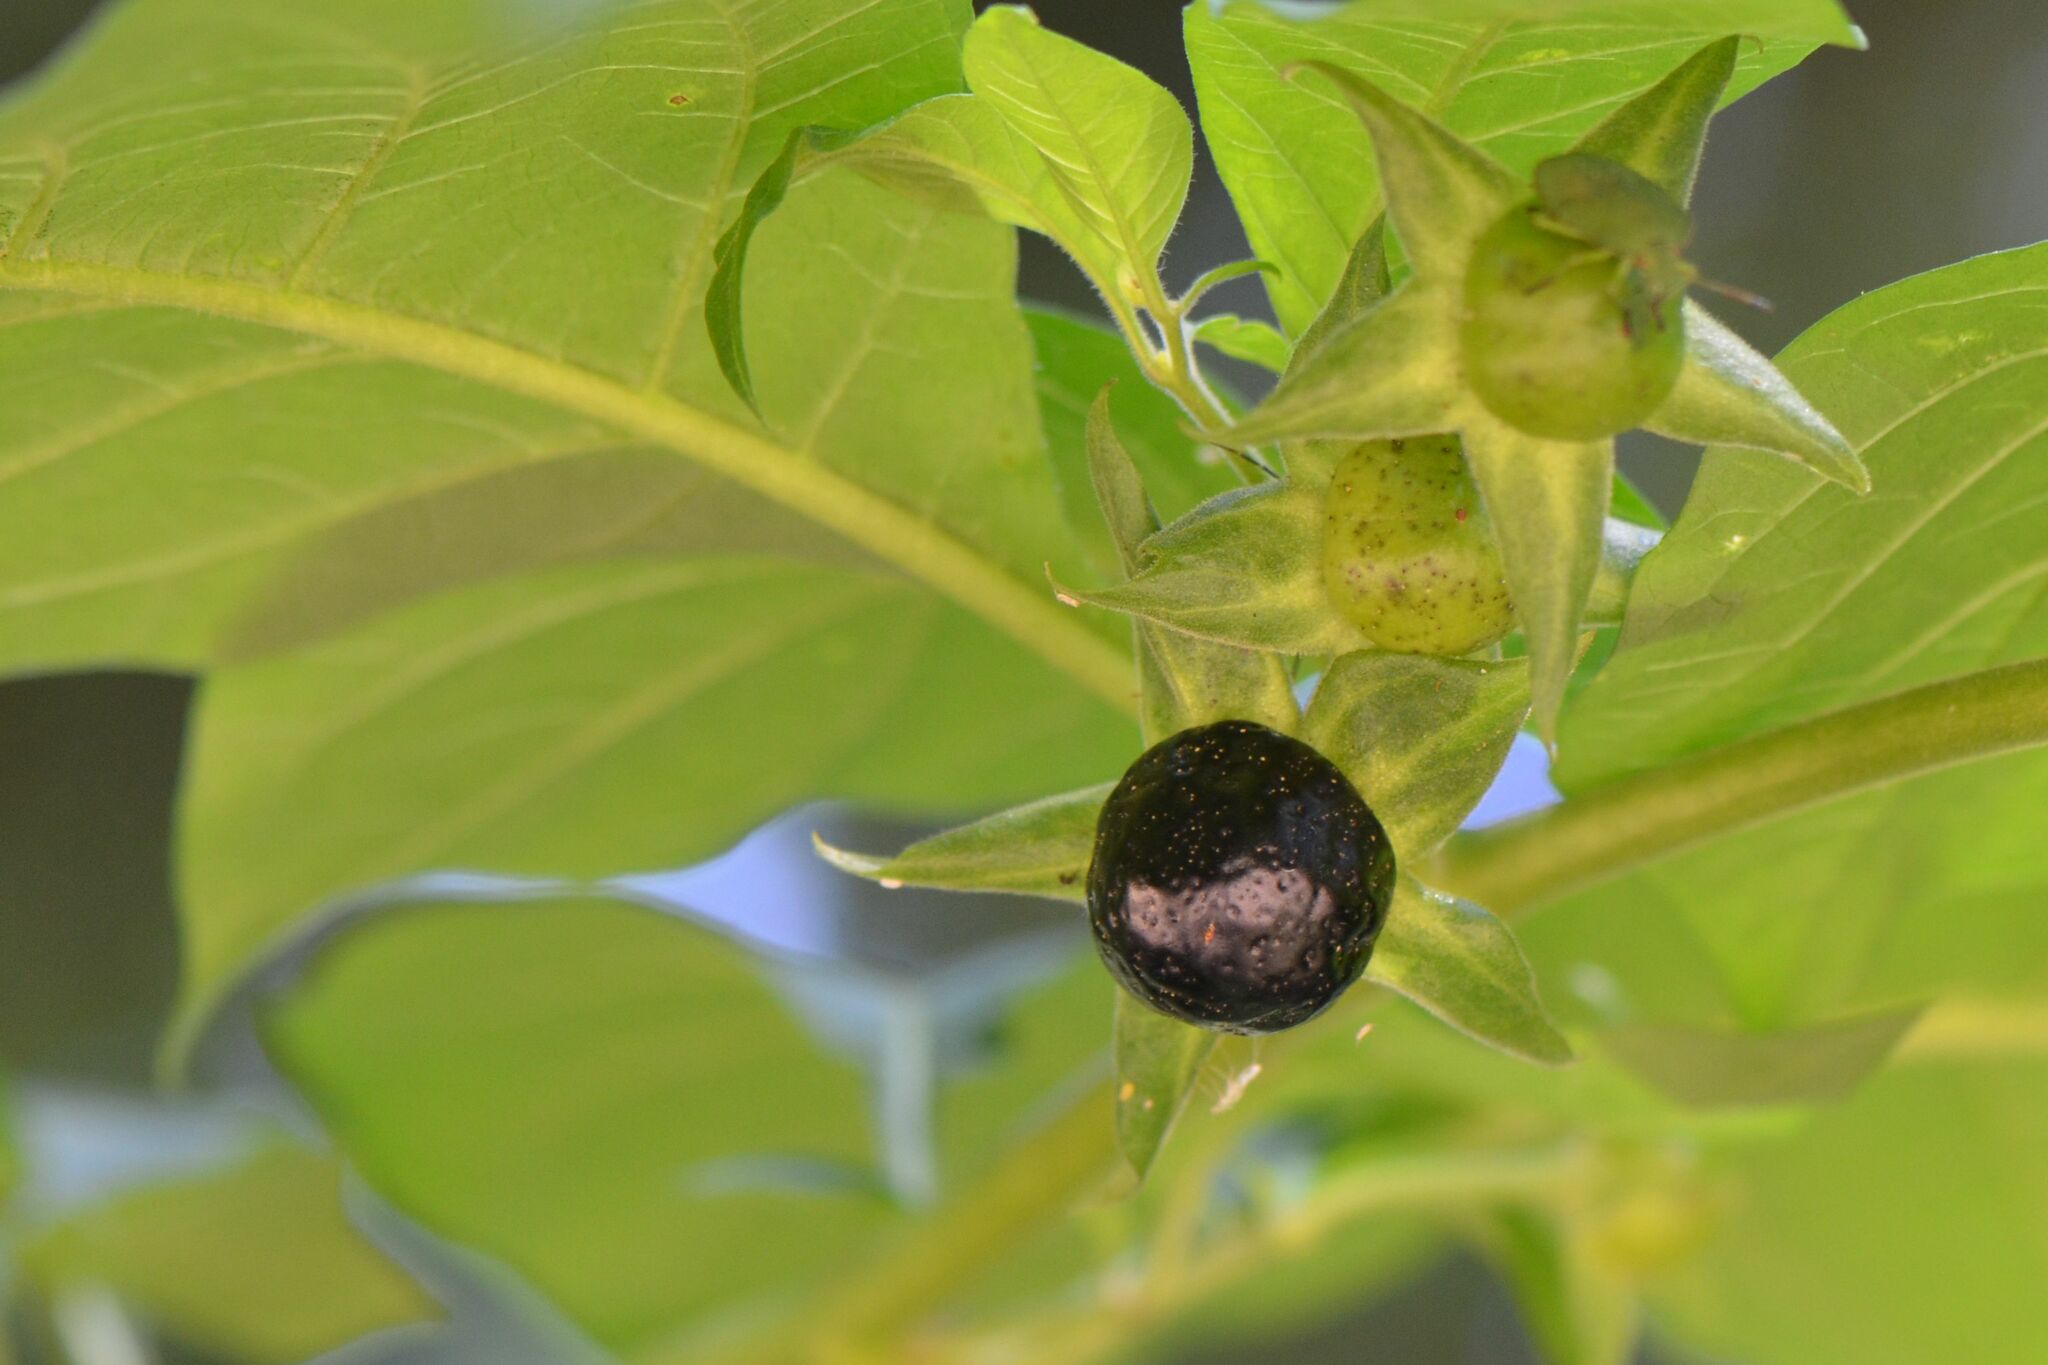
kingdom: Plantae
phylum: Tracheophyta
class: Magnoliopsida
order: Solanales
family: Solanaceae
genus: Atropa
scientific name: Atropa belladonna
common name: Deadly nightshade
